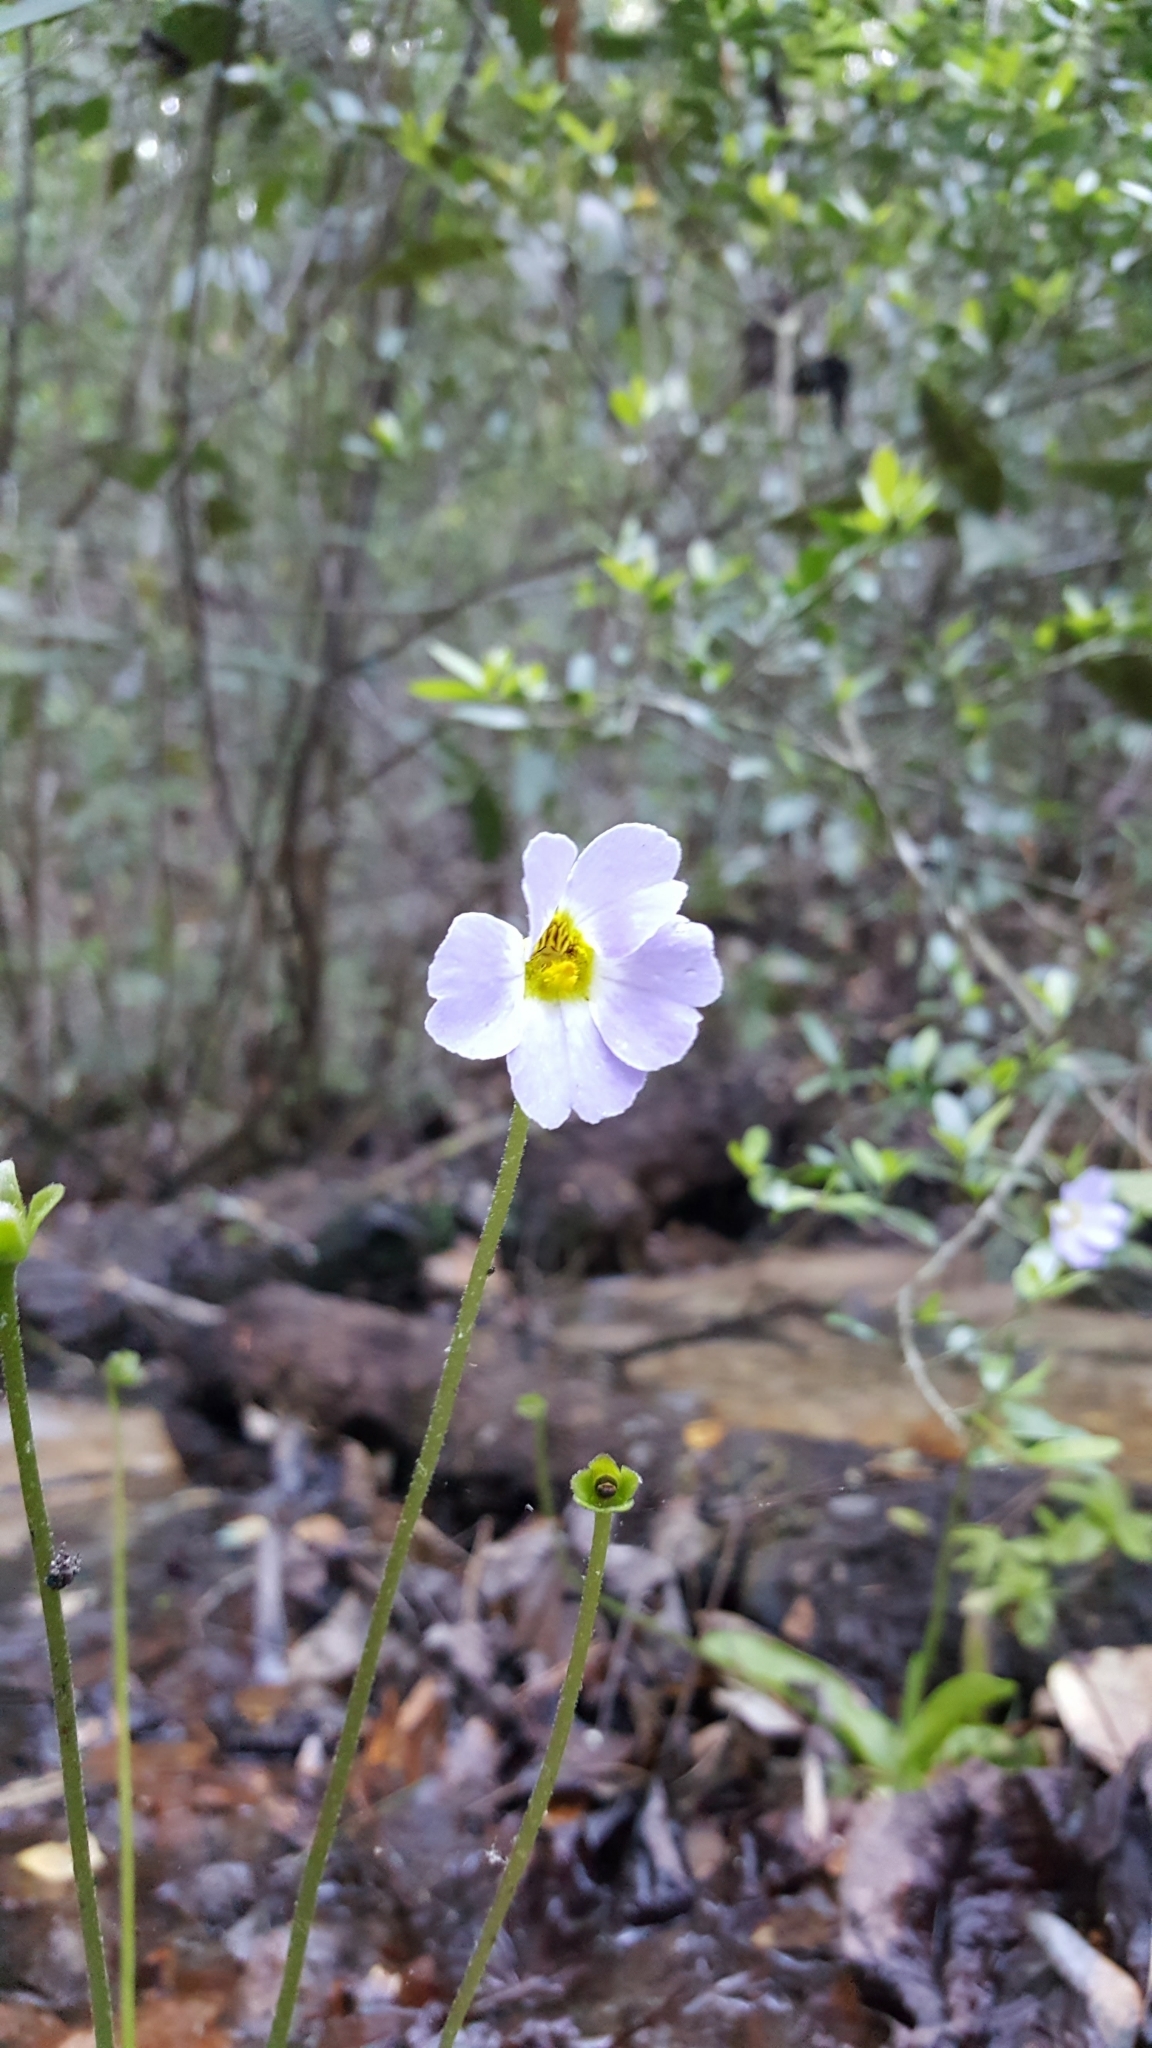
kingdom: Plantae
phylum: Tracheophyta
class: Magnoliopsida
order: Lamiales
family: Lentibulariaceae
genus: Pinguicula
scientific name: Pinguicula primuliflora
